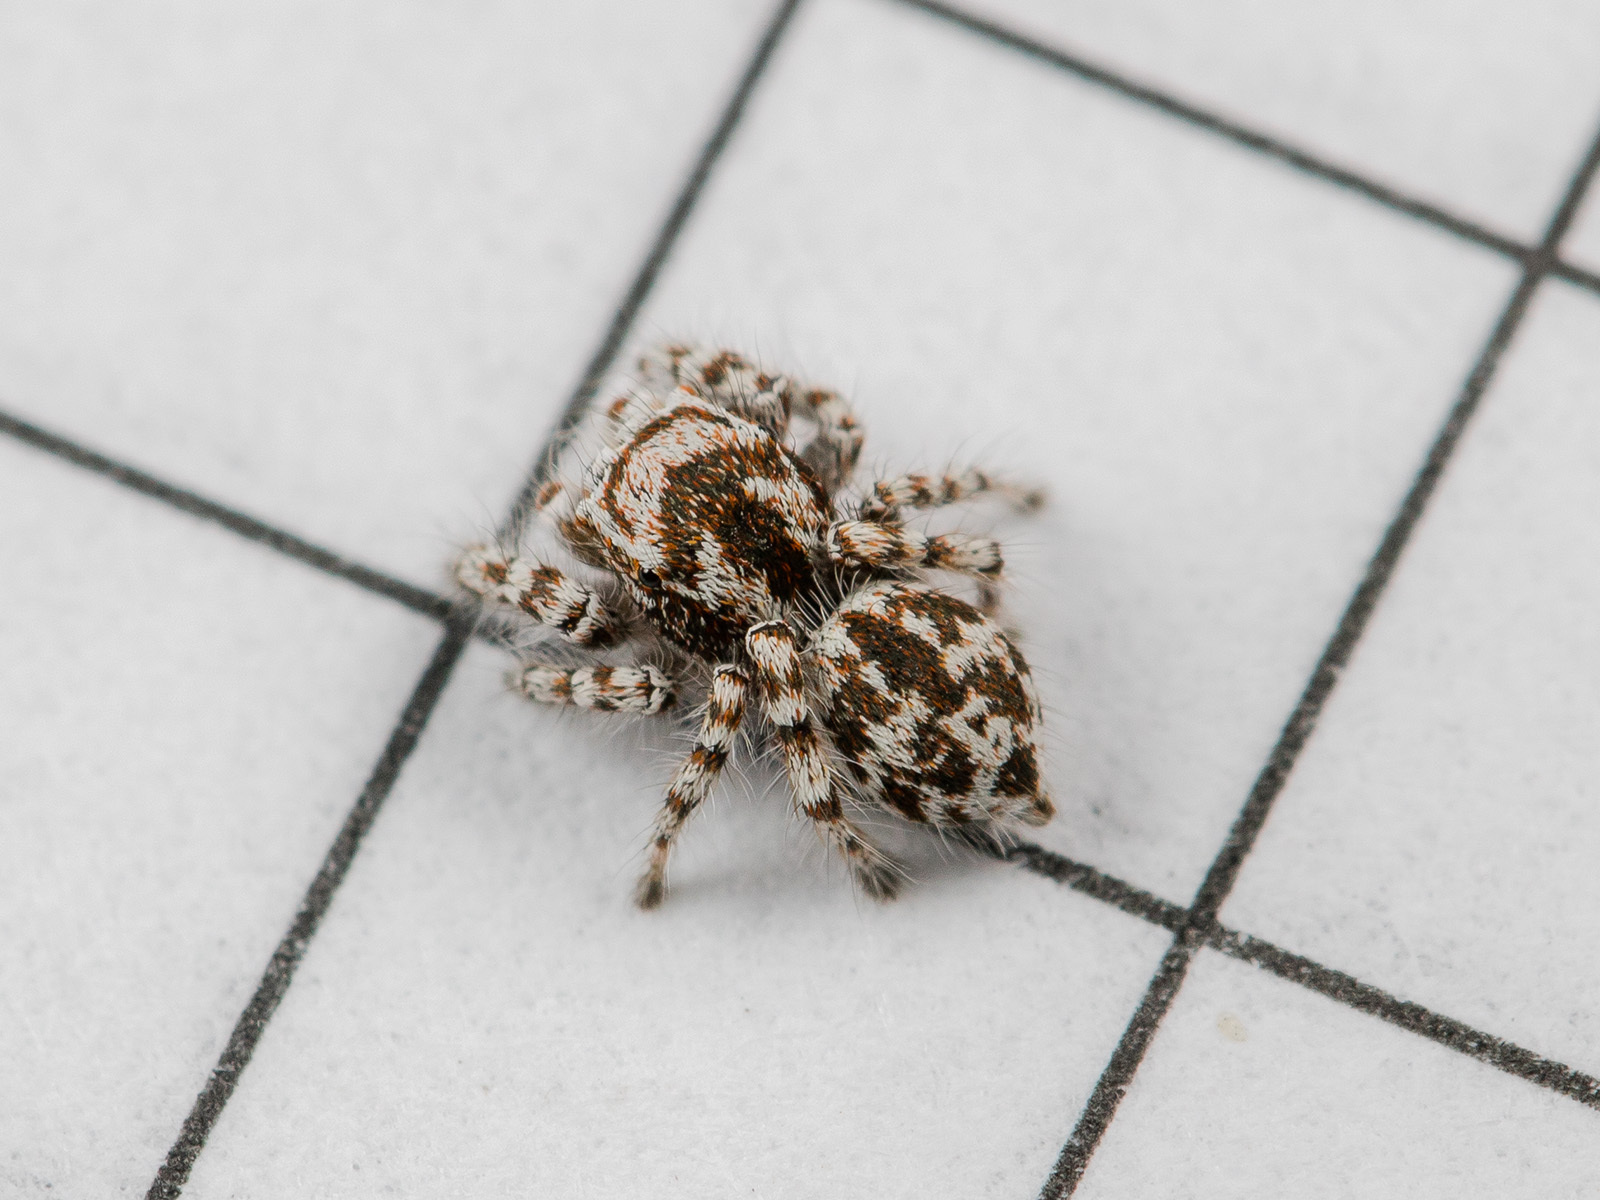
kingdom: Animalia
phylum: Arthropoda
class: Arachnida
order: Araneae
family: Salticidae
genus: Pseudomogrus
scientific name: Pseudomogrus dalaensis
